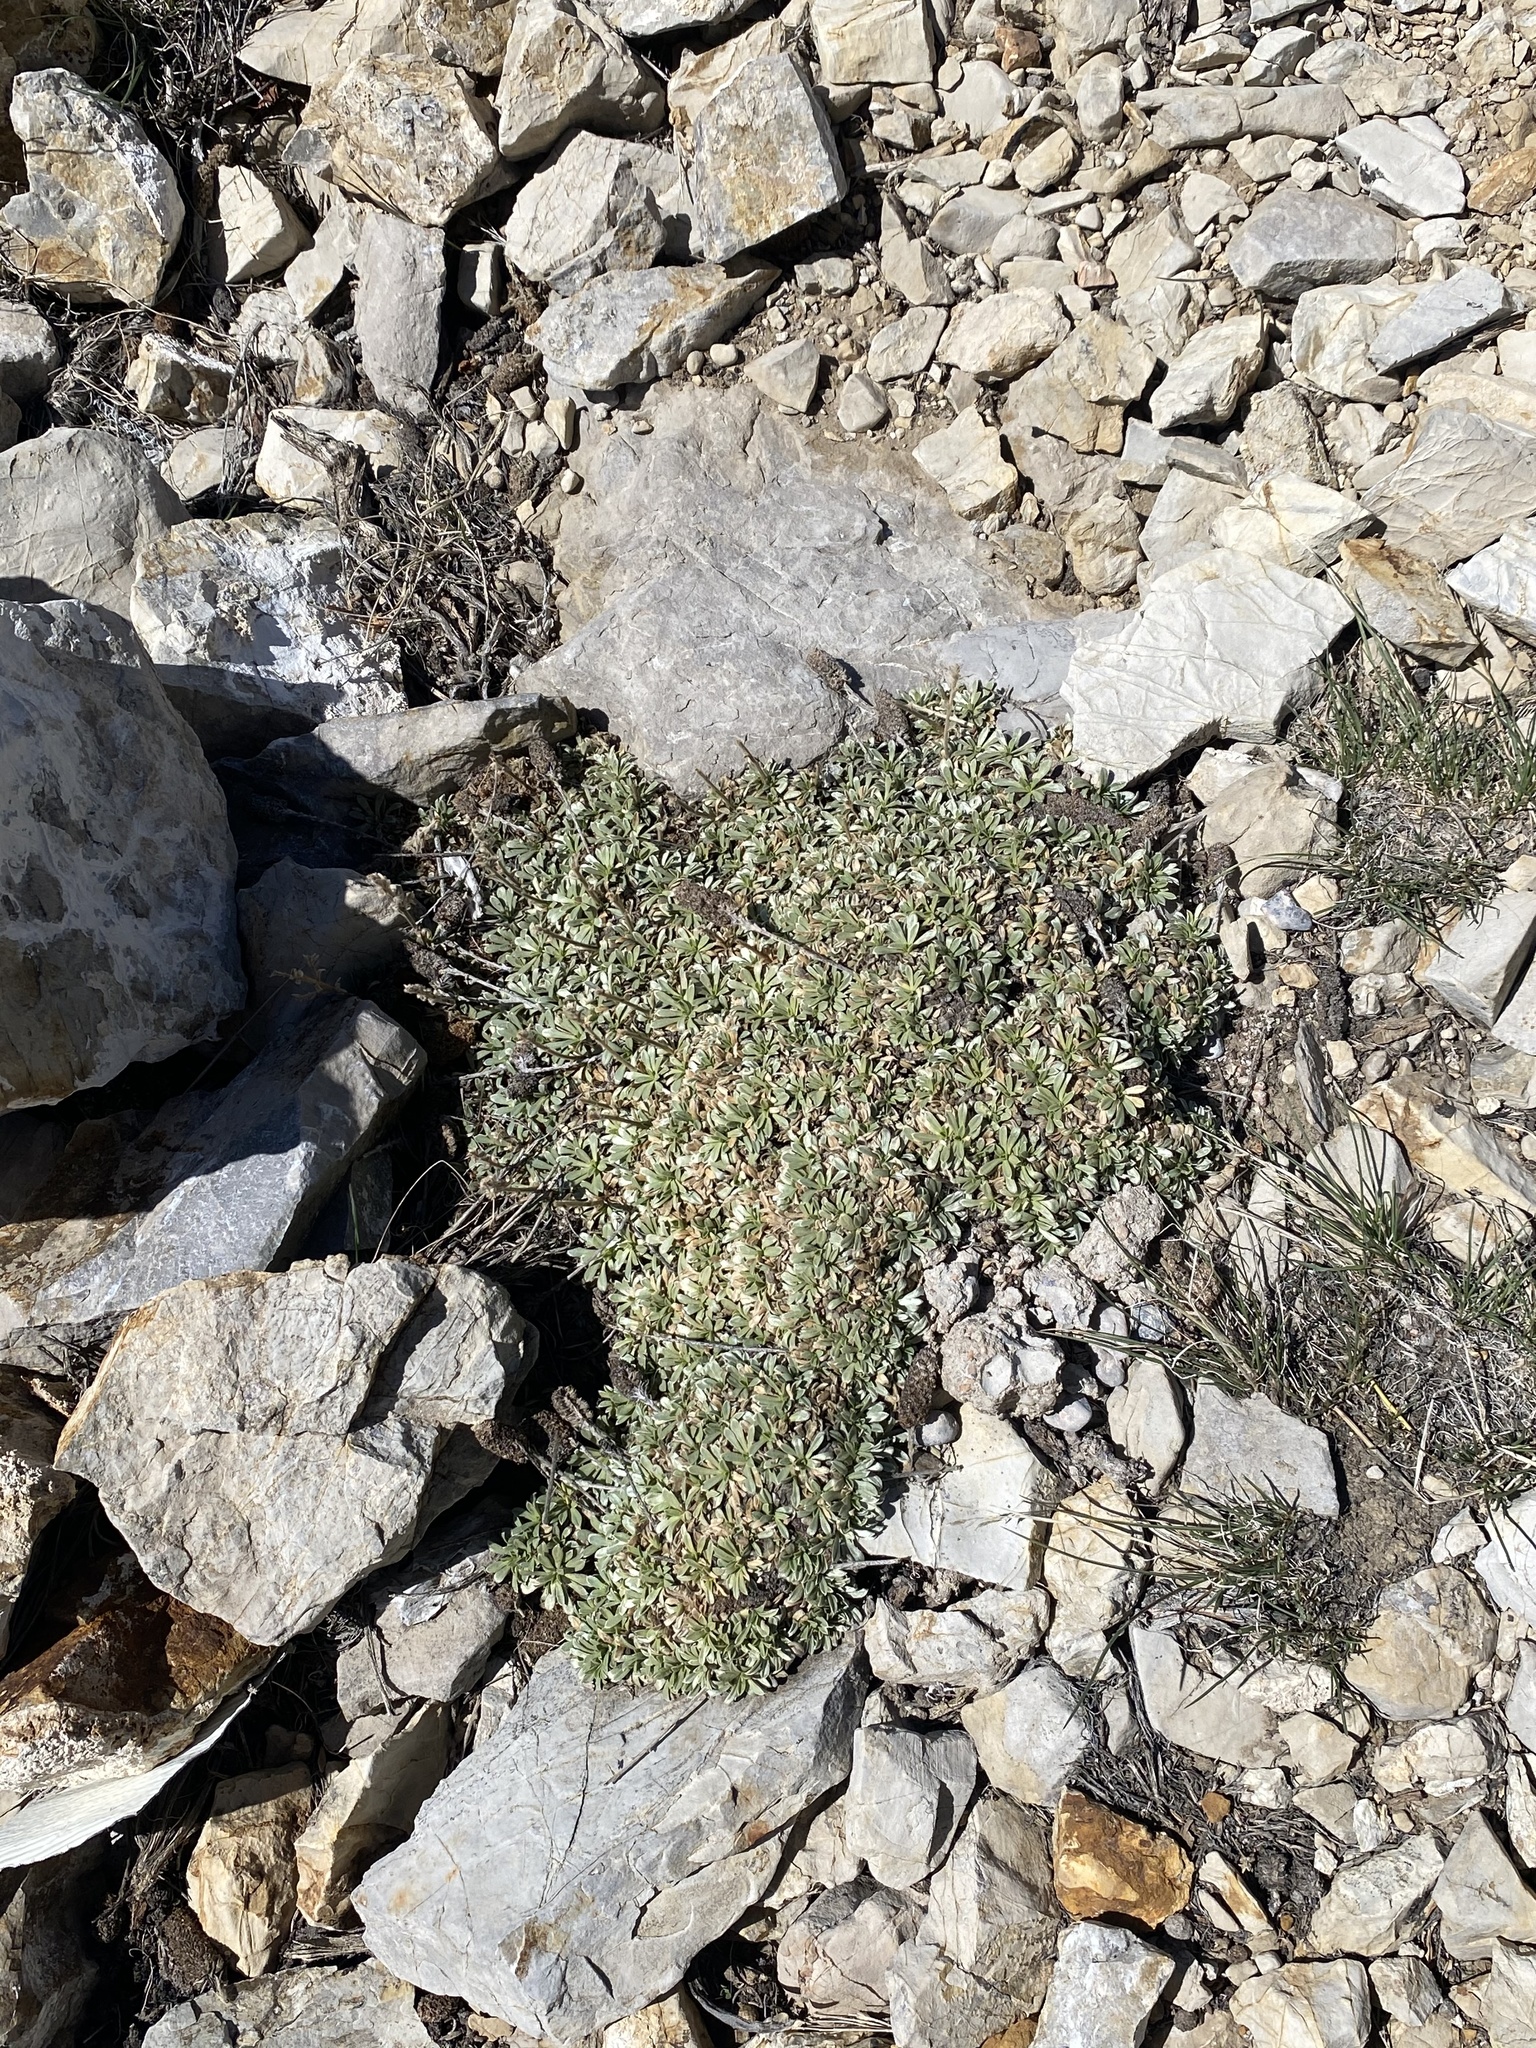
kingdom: Plantae
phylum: Tracheophyta
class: Magnoliopsida
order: Rosales
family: Rosaceae
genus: Petrophytum
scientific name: Petrophytum caespitosum
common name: Mat rockspirea
